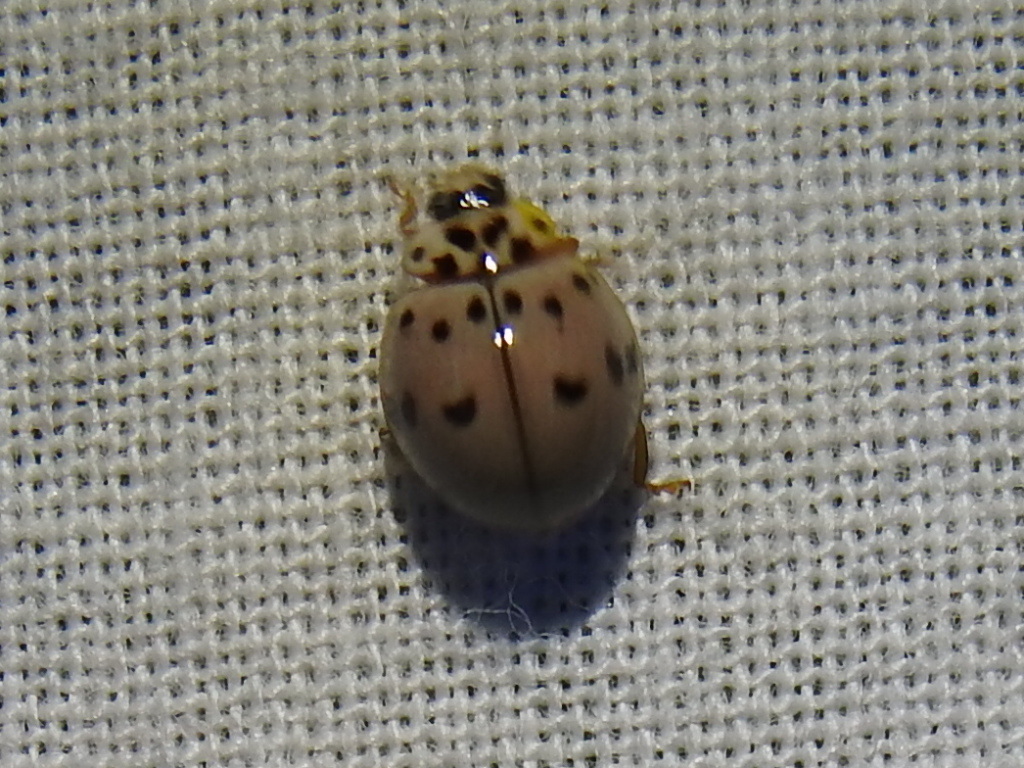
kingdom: Animalia
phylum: Arthropoda
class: Insecta
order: Coleoptera
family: Coccinellidae
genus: Olla
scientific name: Olla v-nigrum
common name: Ashy gray lady beetle
